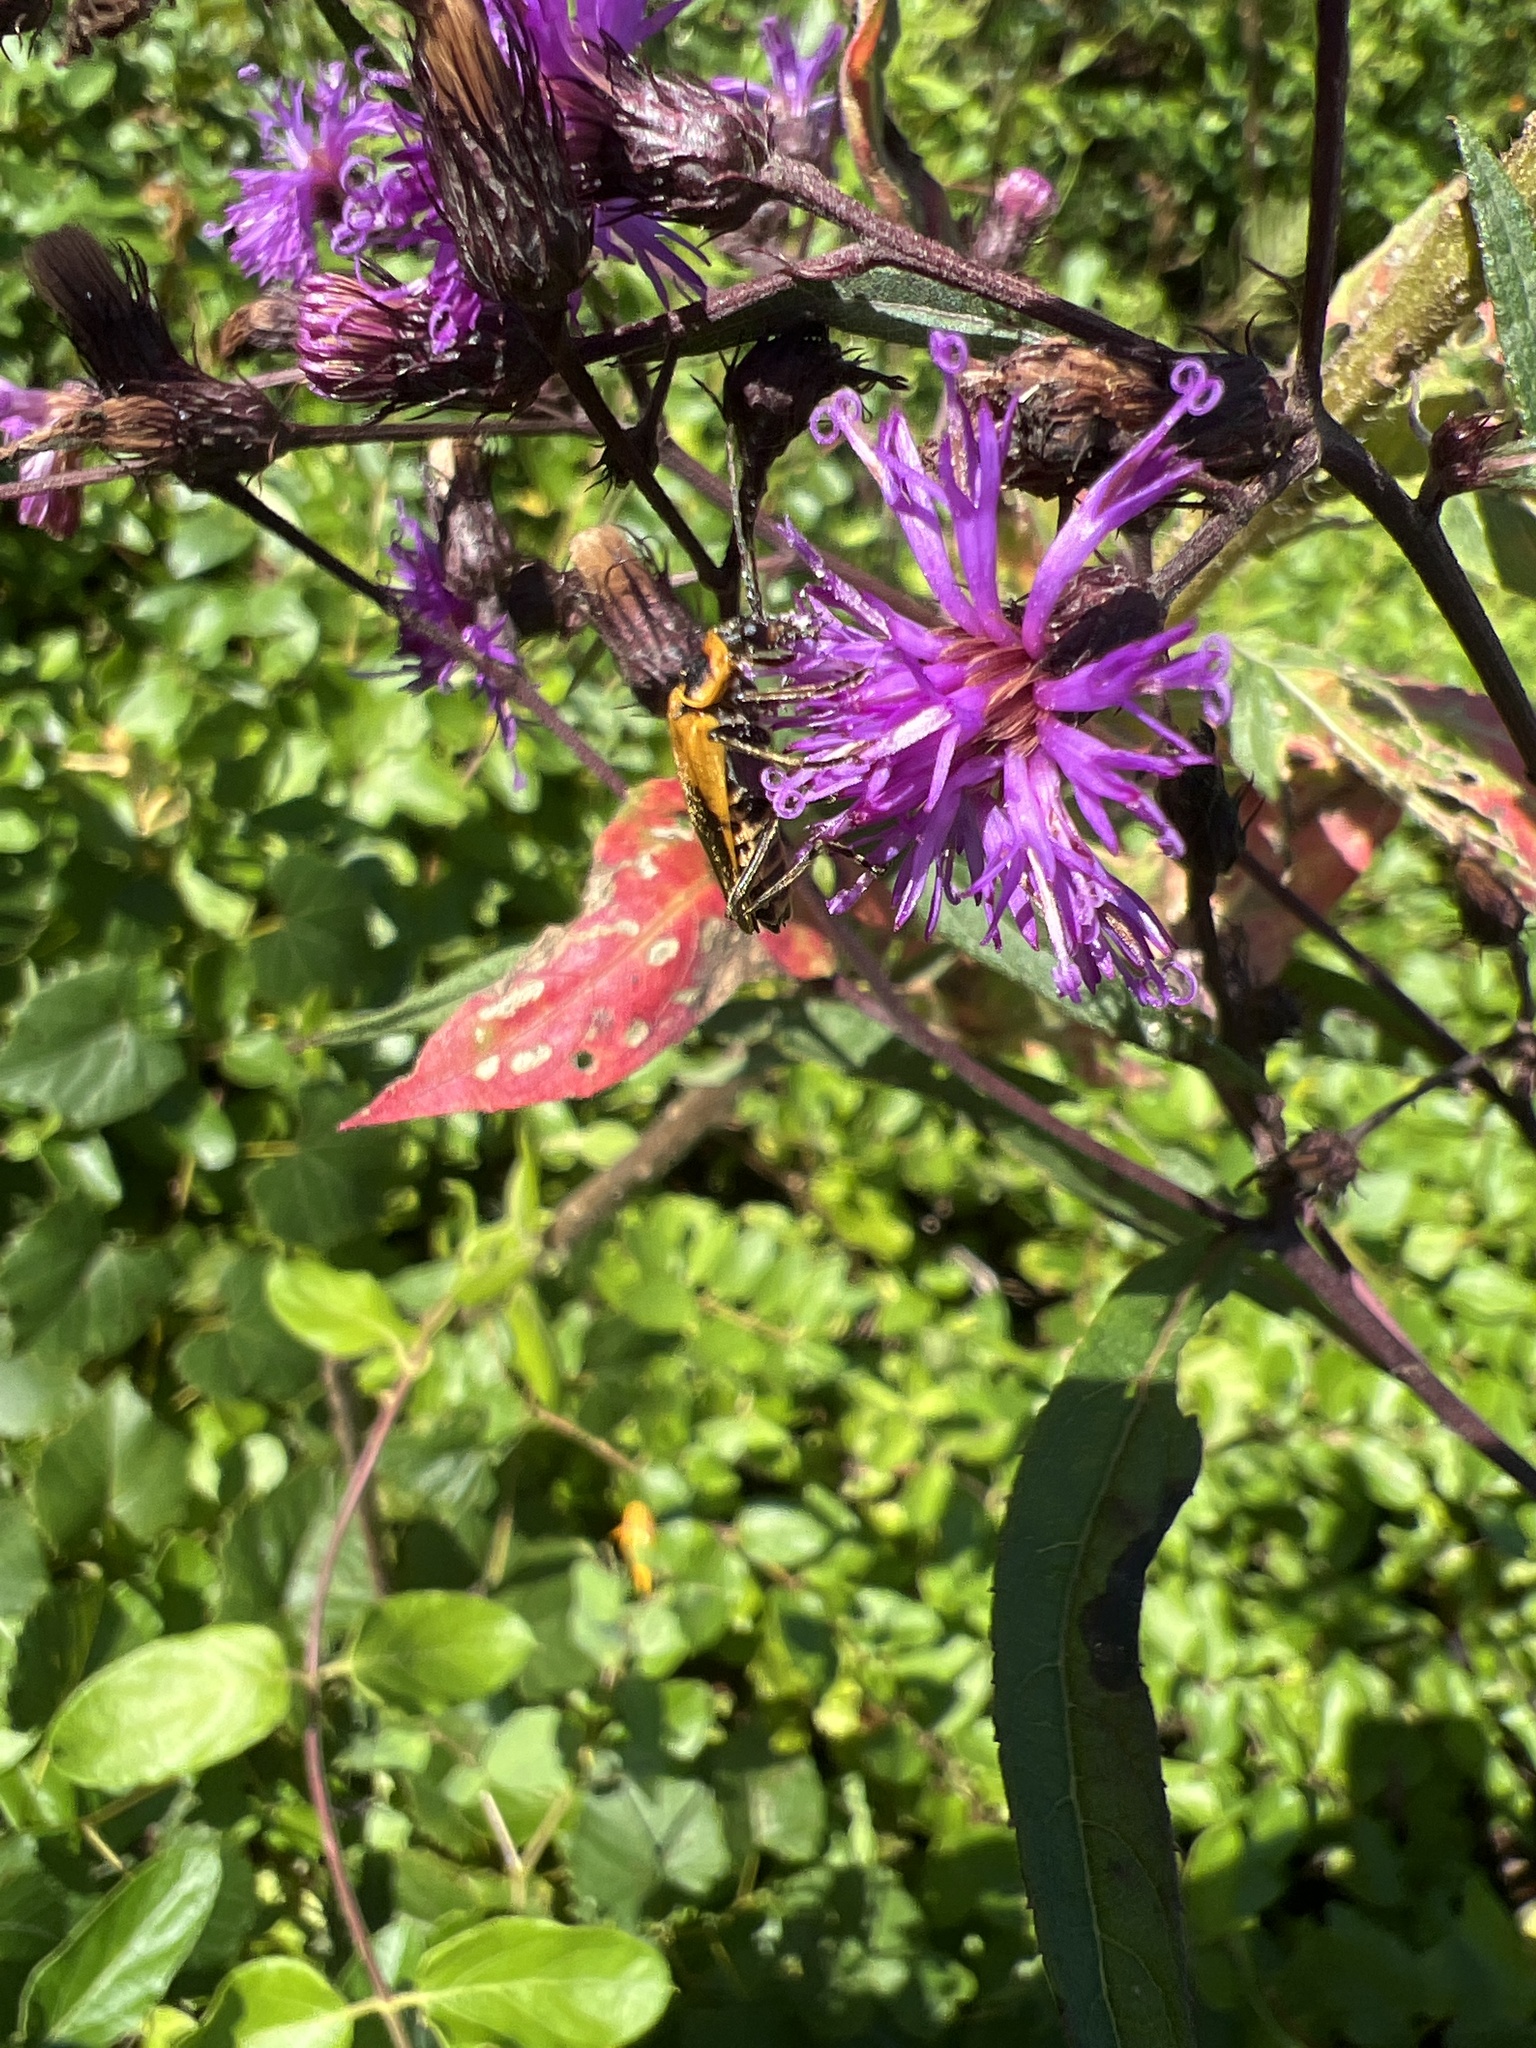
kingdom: Animalia
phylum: Arthropoda
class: Insecta
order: Coleoptera
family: Cantharidae
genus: Chauliognathus
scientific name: Chauliognathus pensylvanicus
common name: Goldenrod soldier beetle
